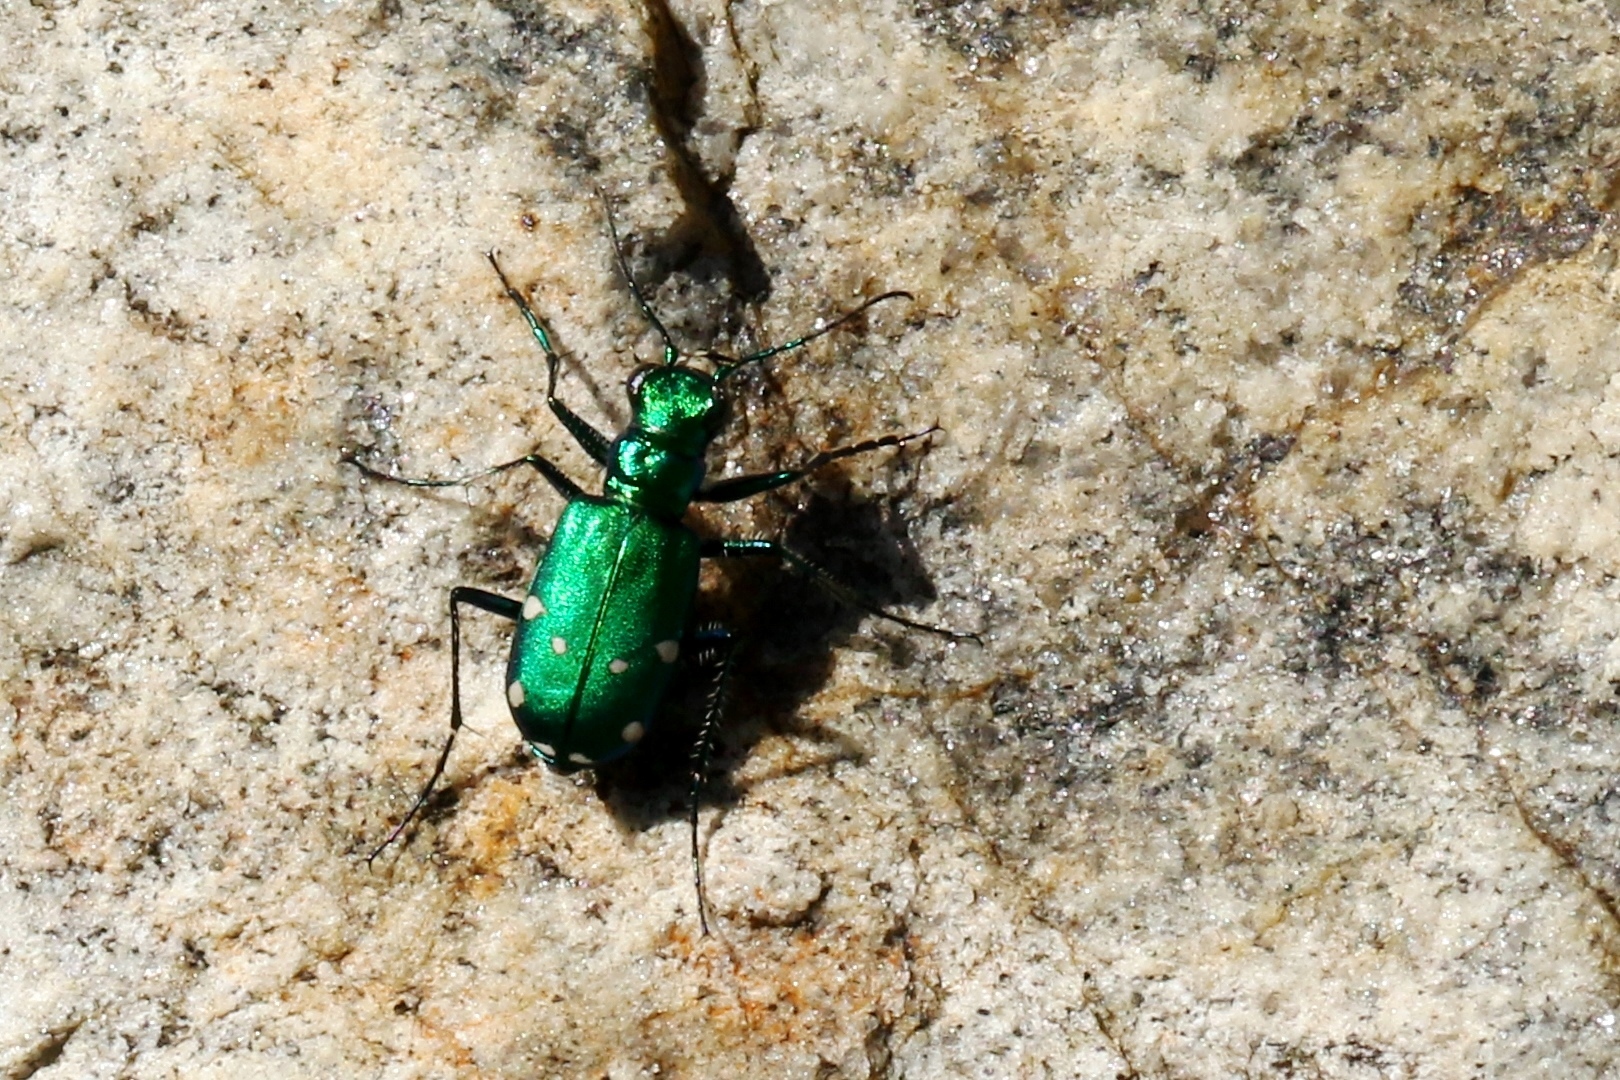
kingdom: Animalia
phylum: Arthropoda
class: Insecta
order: Coleoptera
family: Carabidae
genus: Cicindela
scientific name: Cicindela sexguttata
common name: Six-spotted tiger beetle
